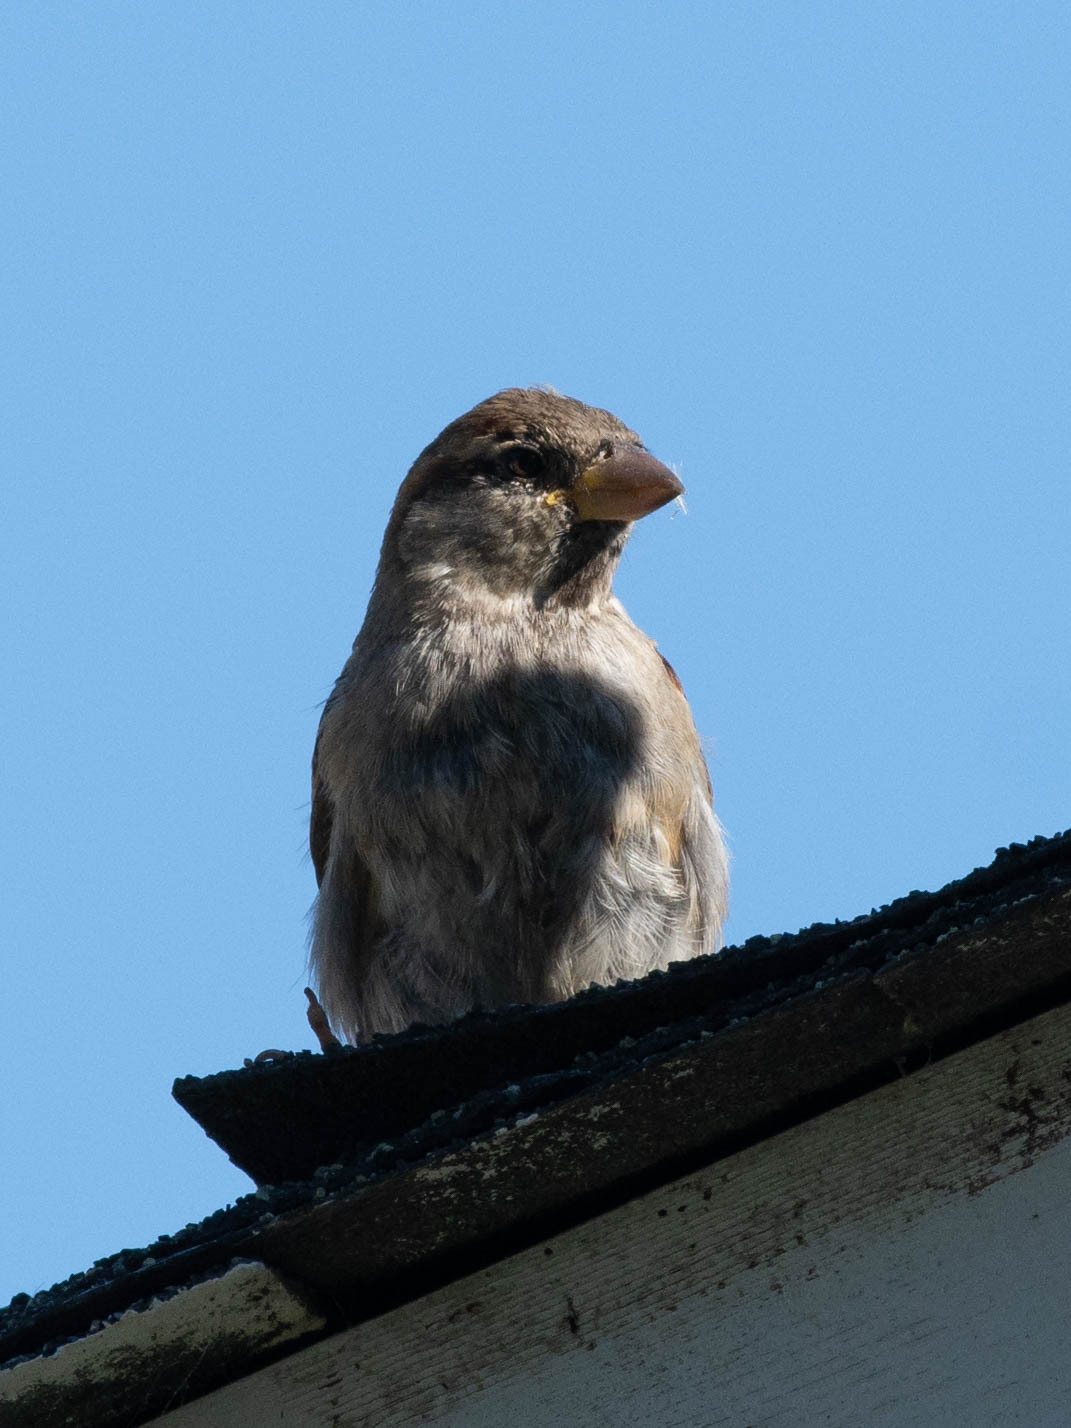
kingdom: Animalia
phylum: Chordata
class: Aves
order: Passeriformes
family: Passeridae
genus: Passer
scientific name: Passer domesticus
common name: House sparrow
